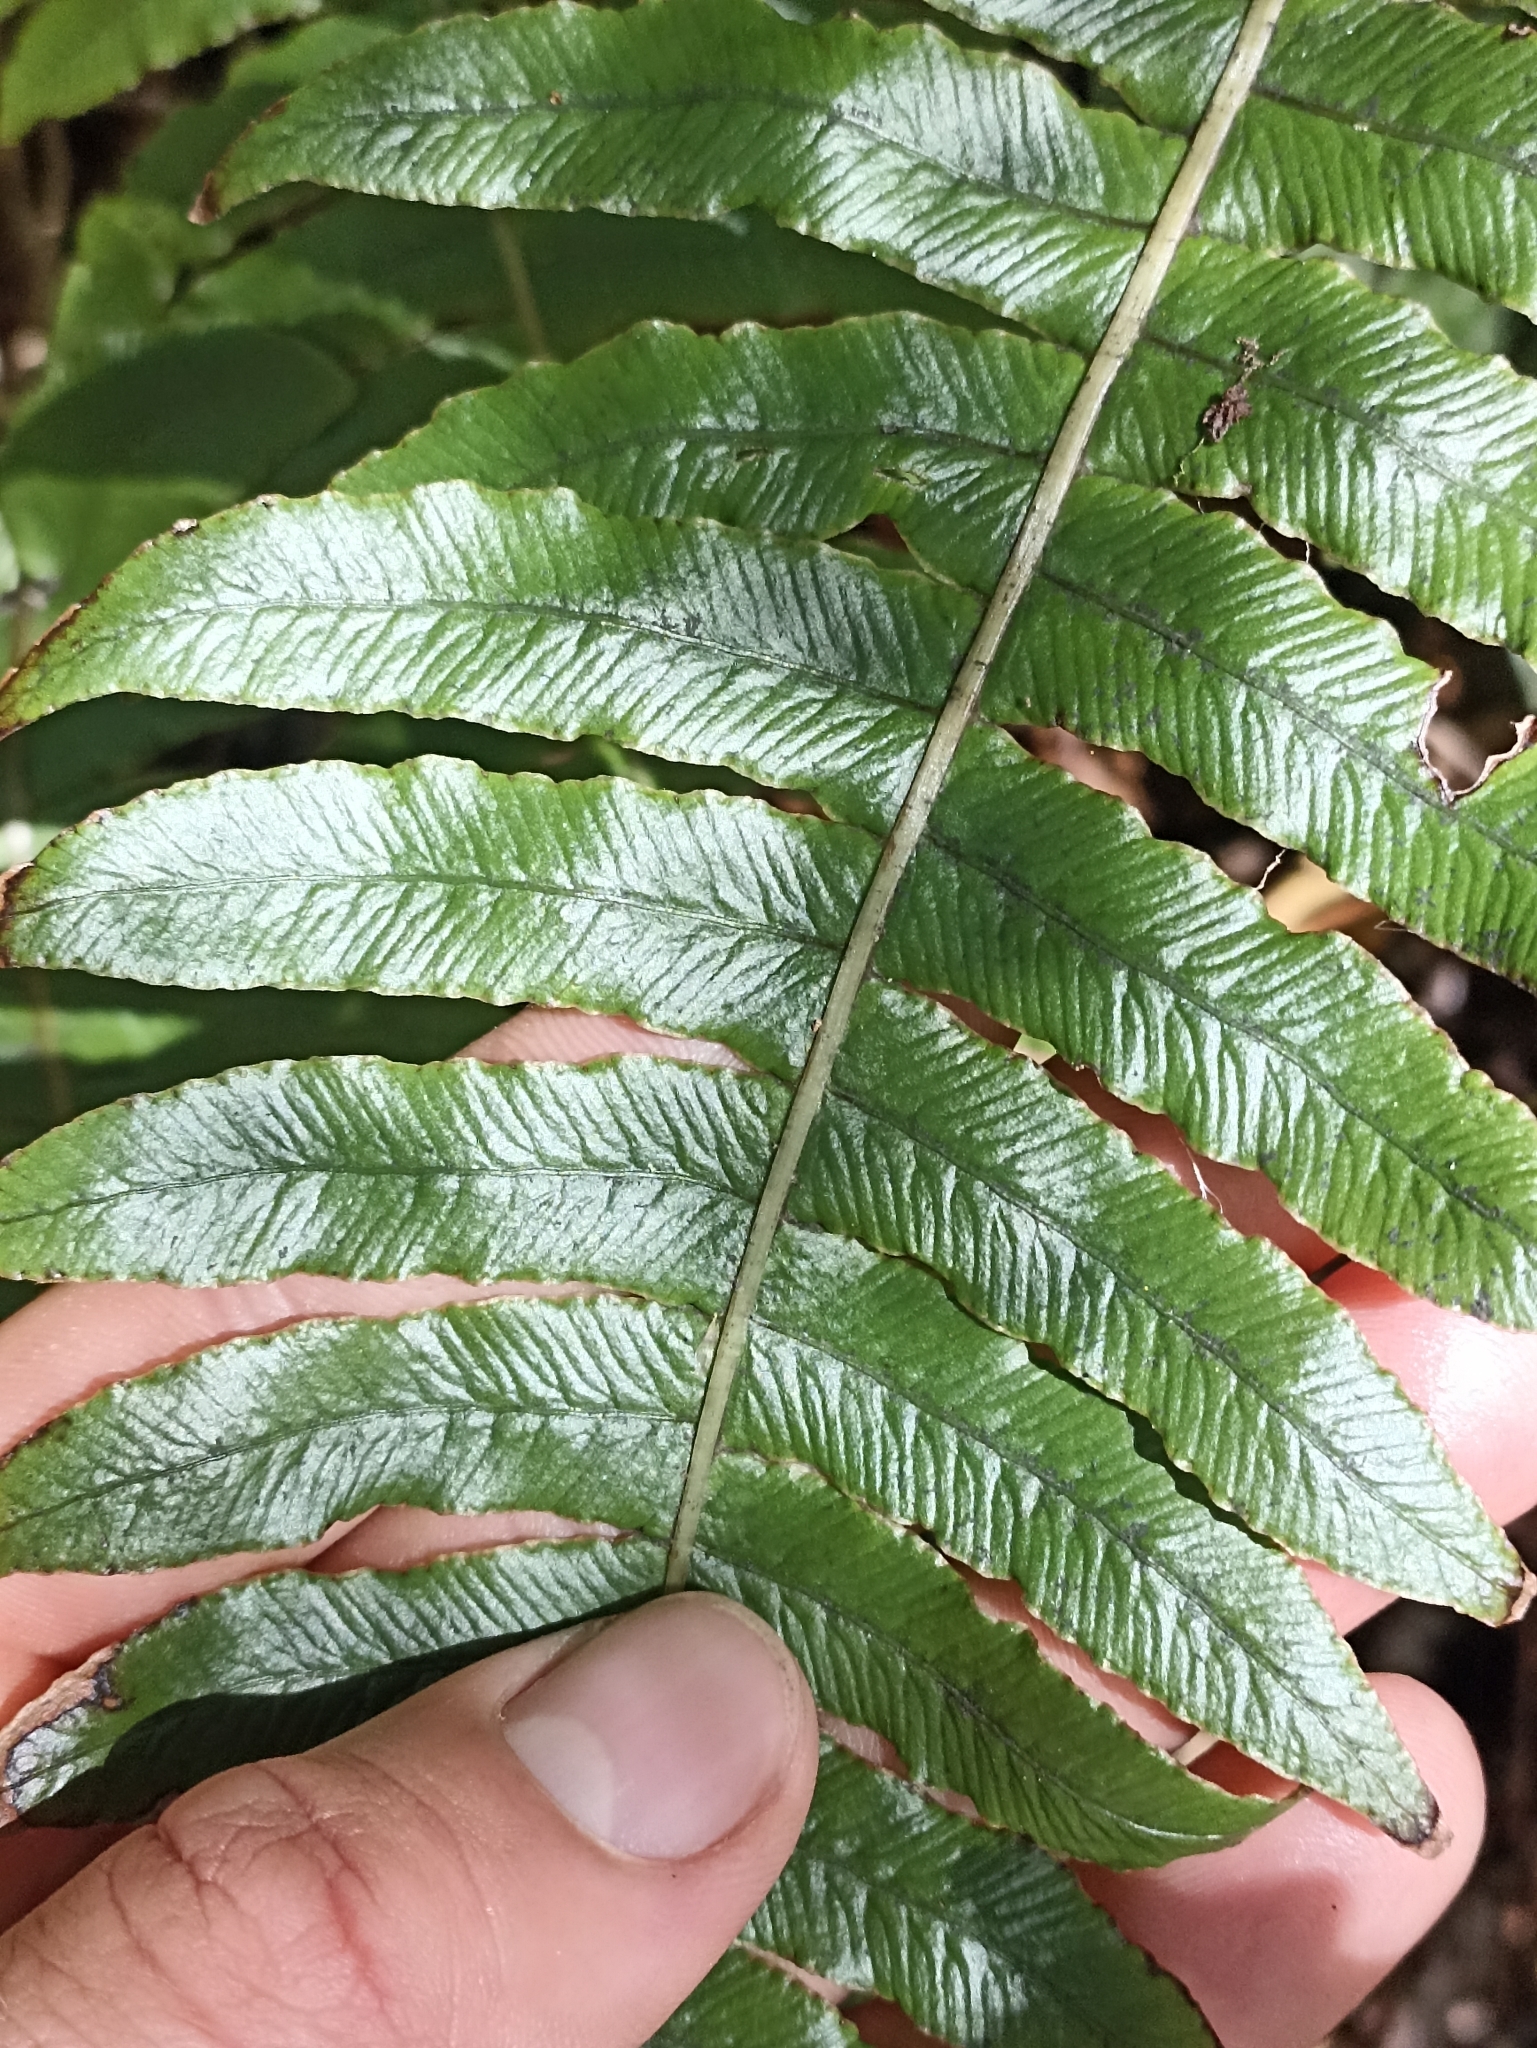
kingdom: Plantae
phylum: Tracheophyta
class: Polypodiopsida
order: Polypodiales
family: Blechnaceae
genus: Cranfillia
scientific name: Cranfillia deltoides
